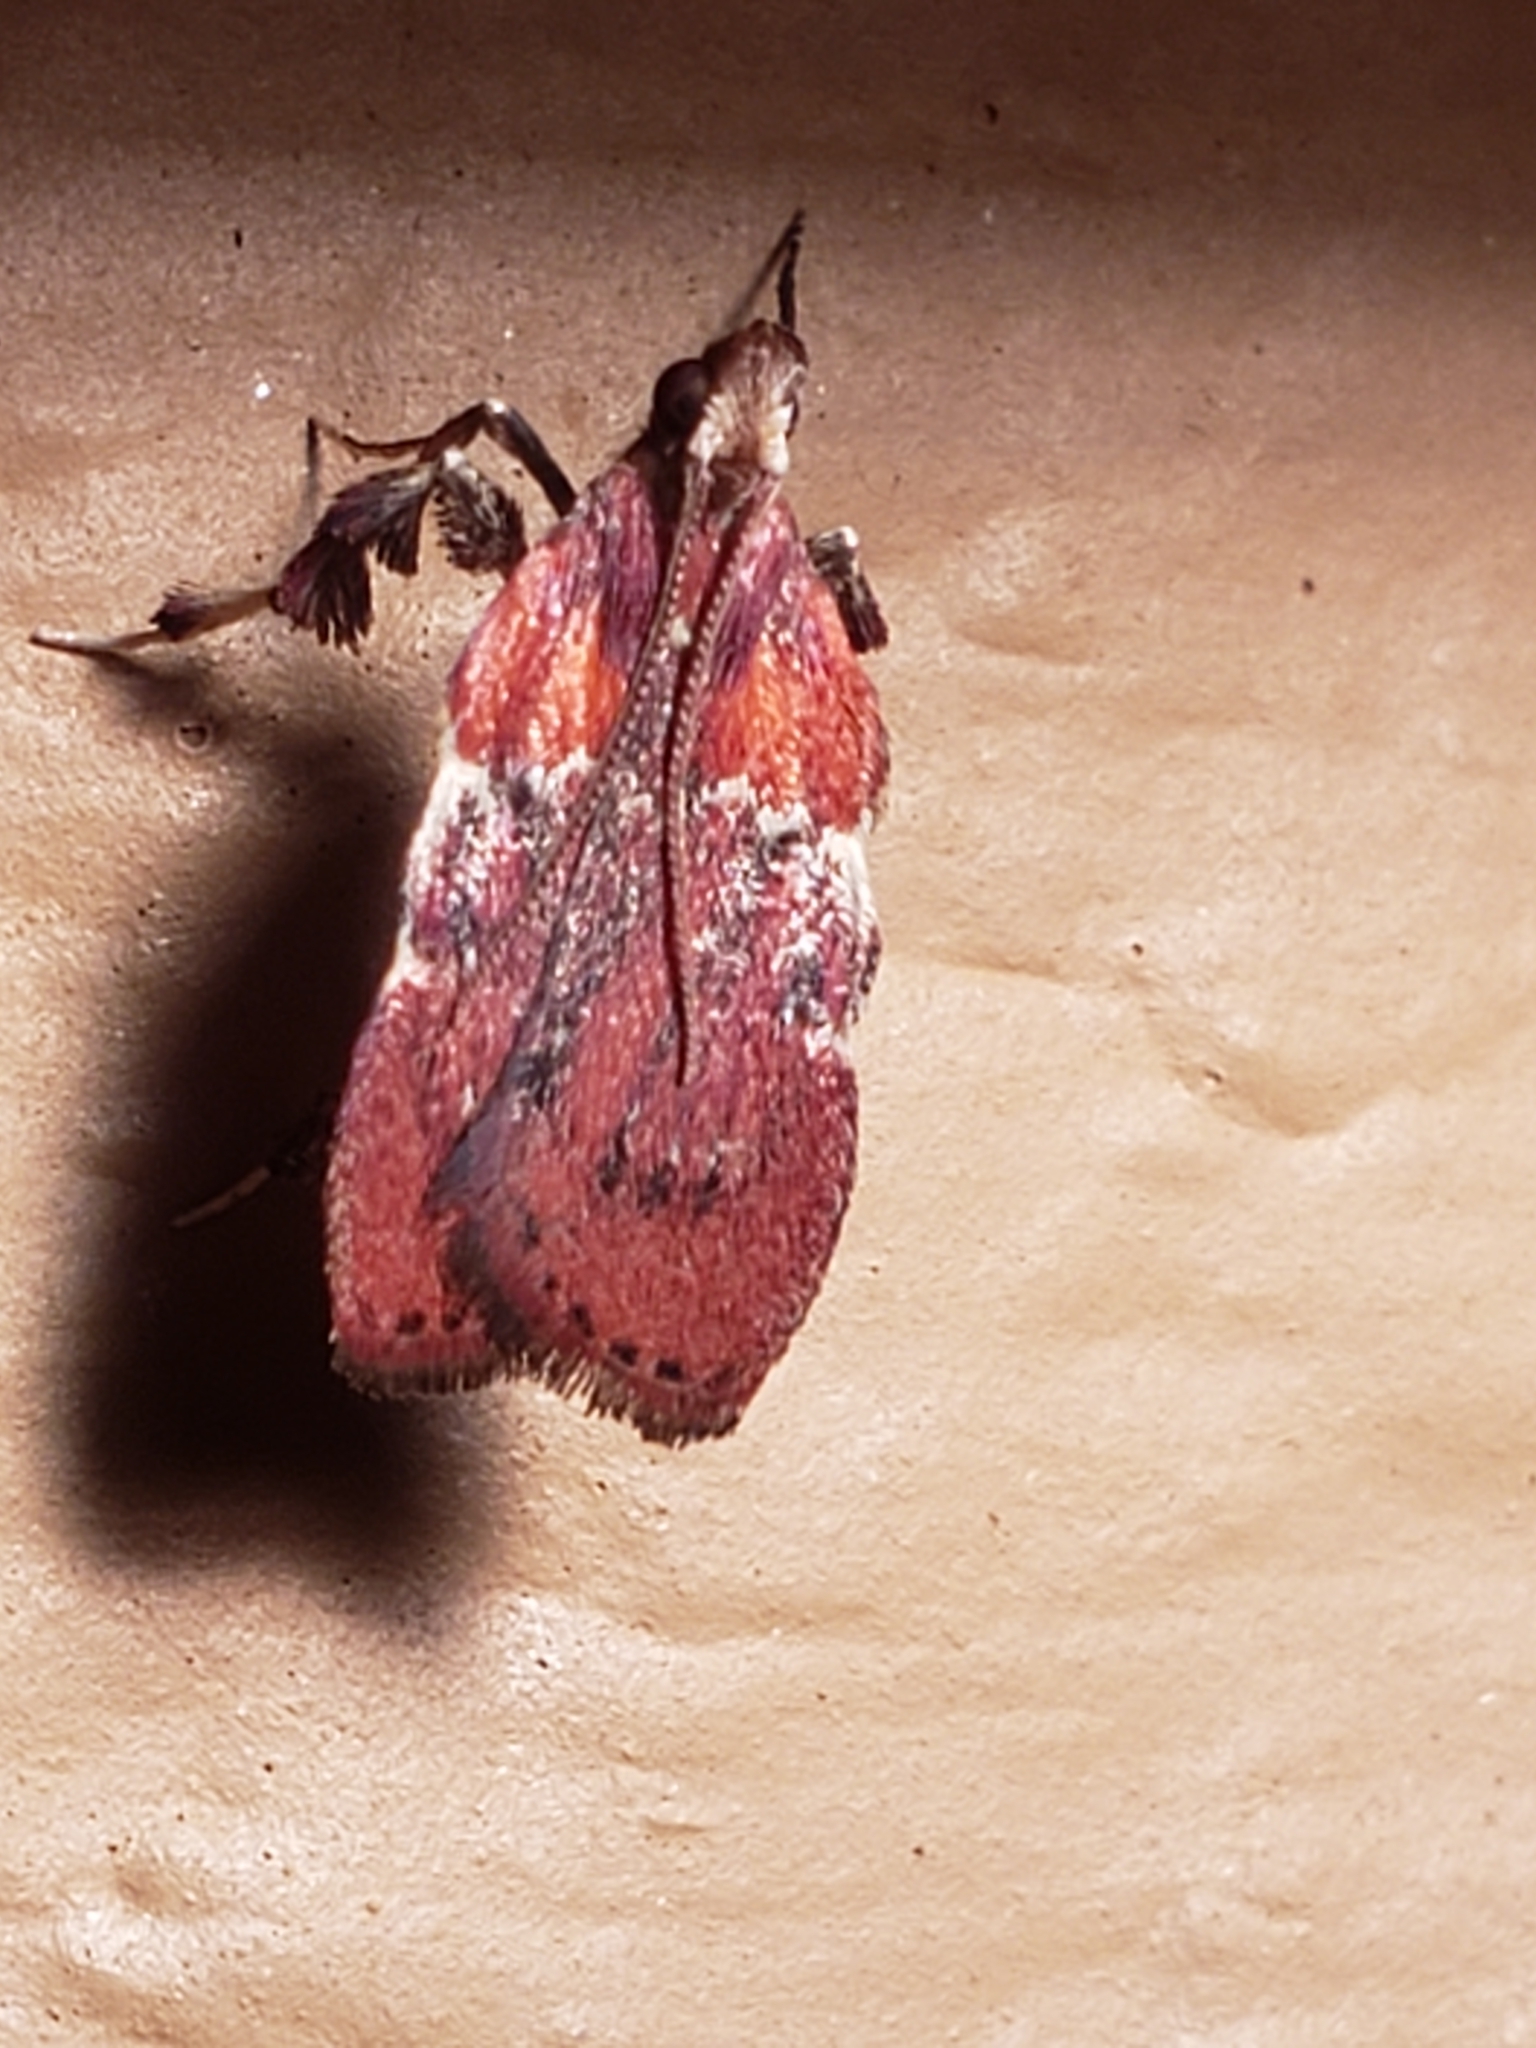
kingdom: Animalia
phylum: Arthropoda
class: Insecta
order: Lepidoptera
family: Pyralidae
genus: Galasa
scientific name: Galasa nigrinodis
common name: Boxwood leaftier moth
